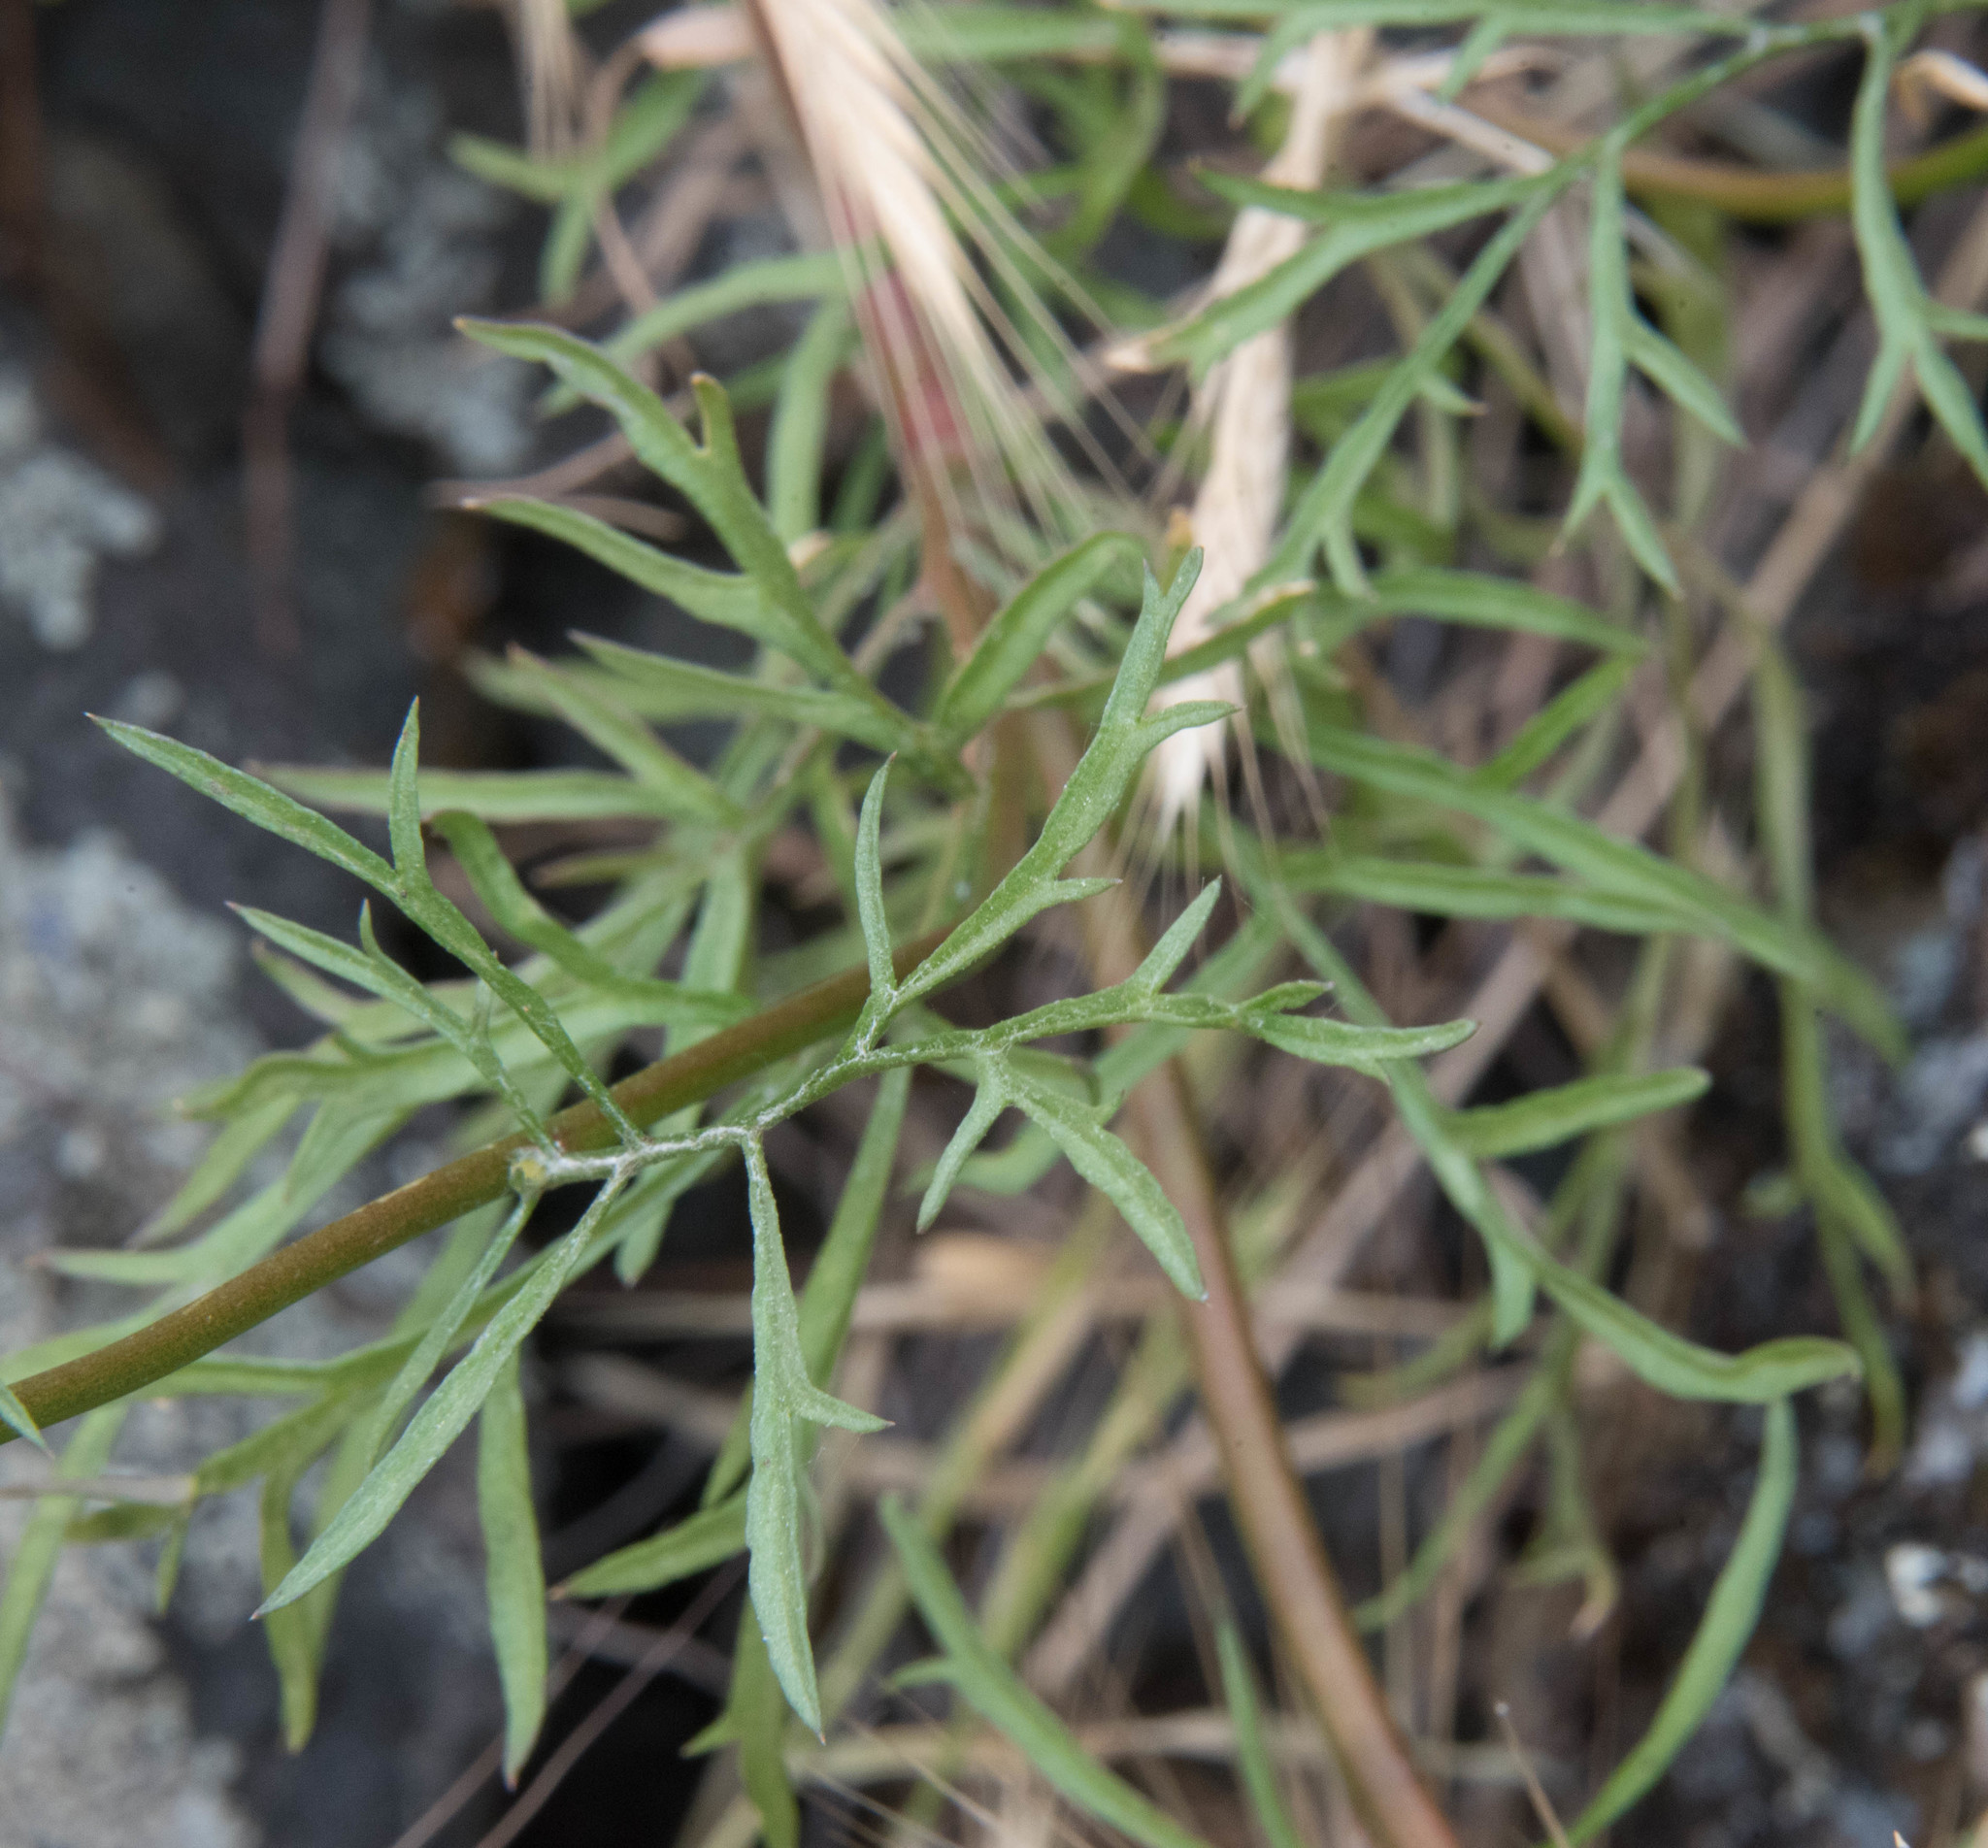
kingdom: Plantae
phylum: Tracheophyta
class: Magnoliopsida
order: Ericales
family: Polemoniaceae
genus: Gilia
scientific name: Gilia capitata
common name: Bluehead gilia
